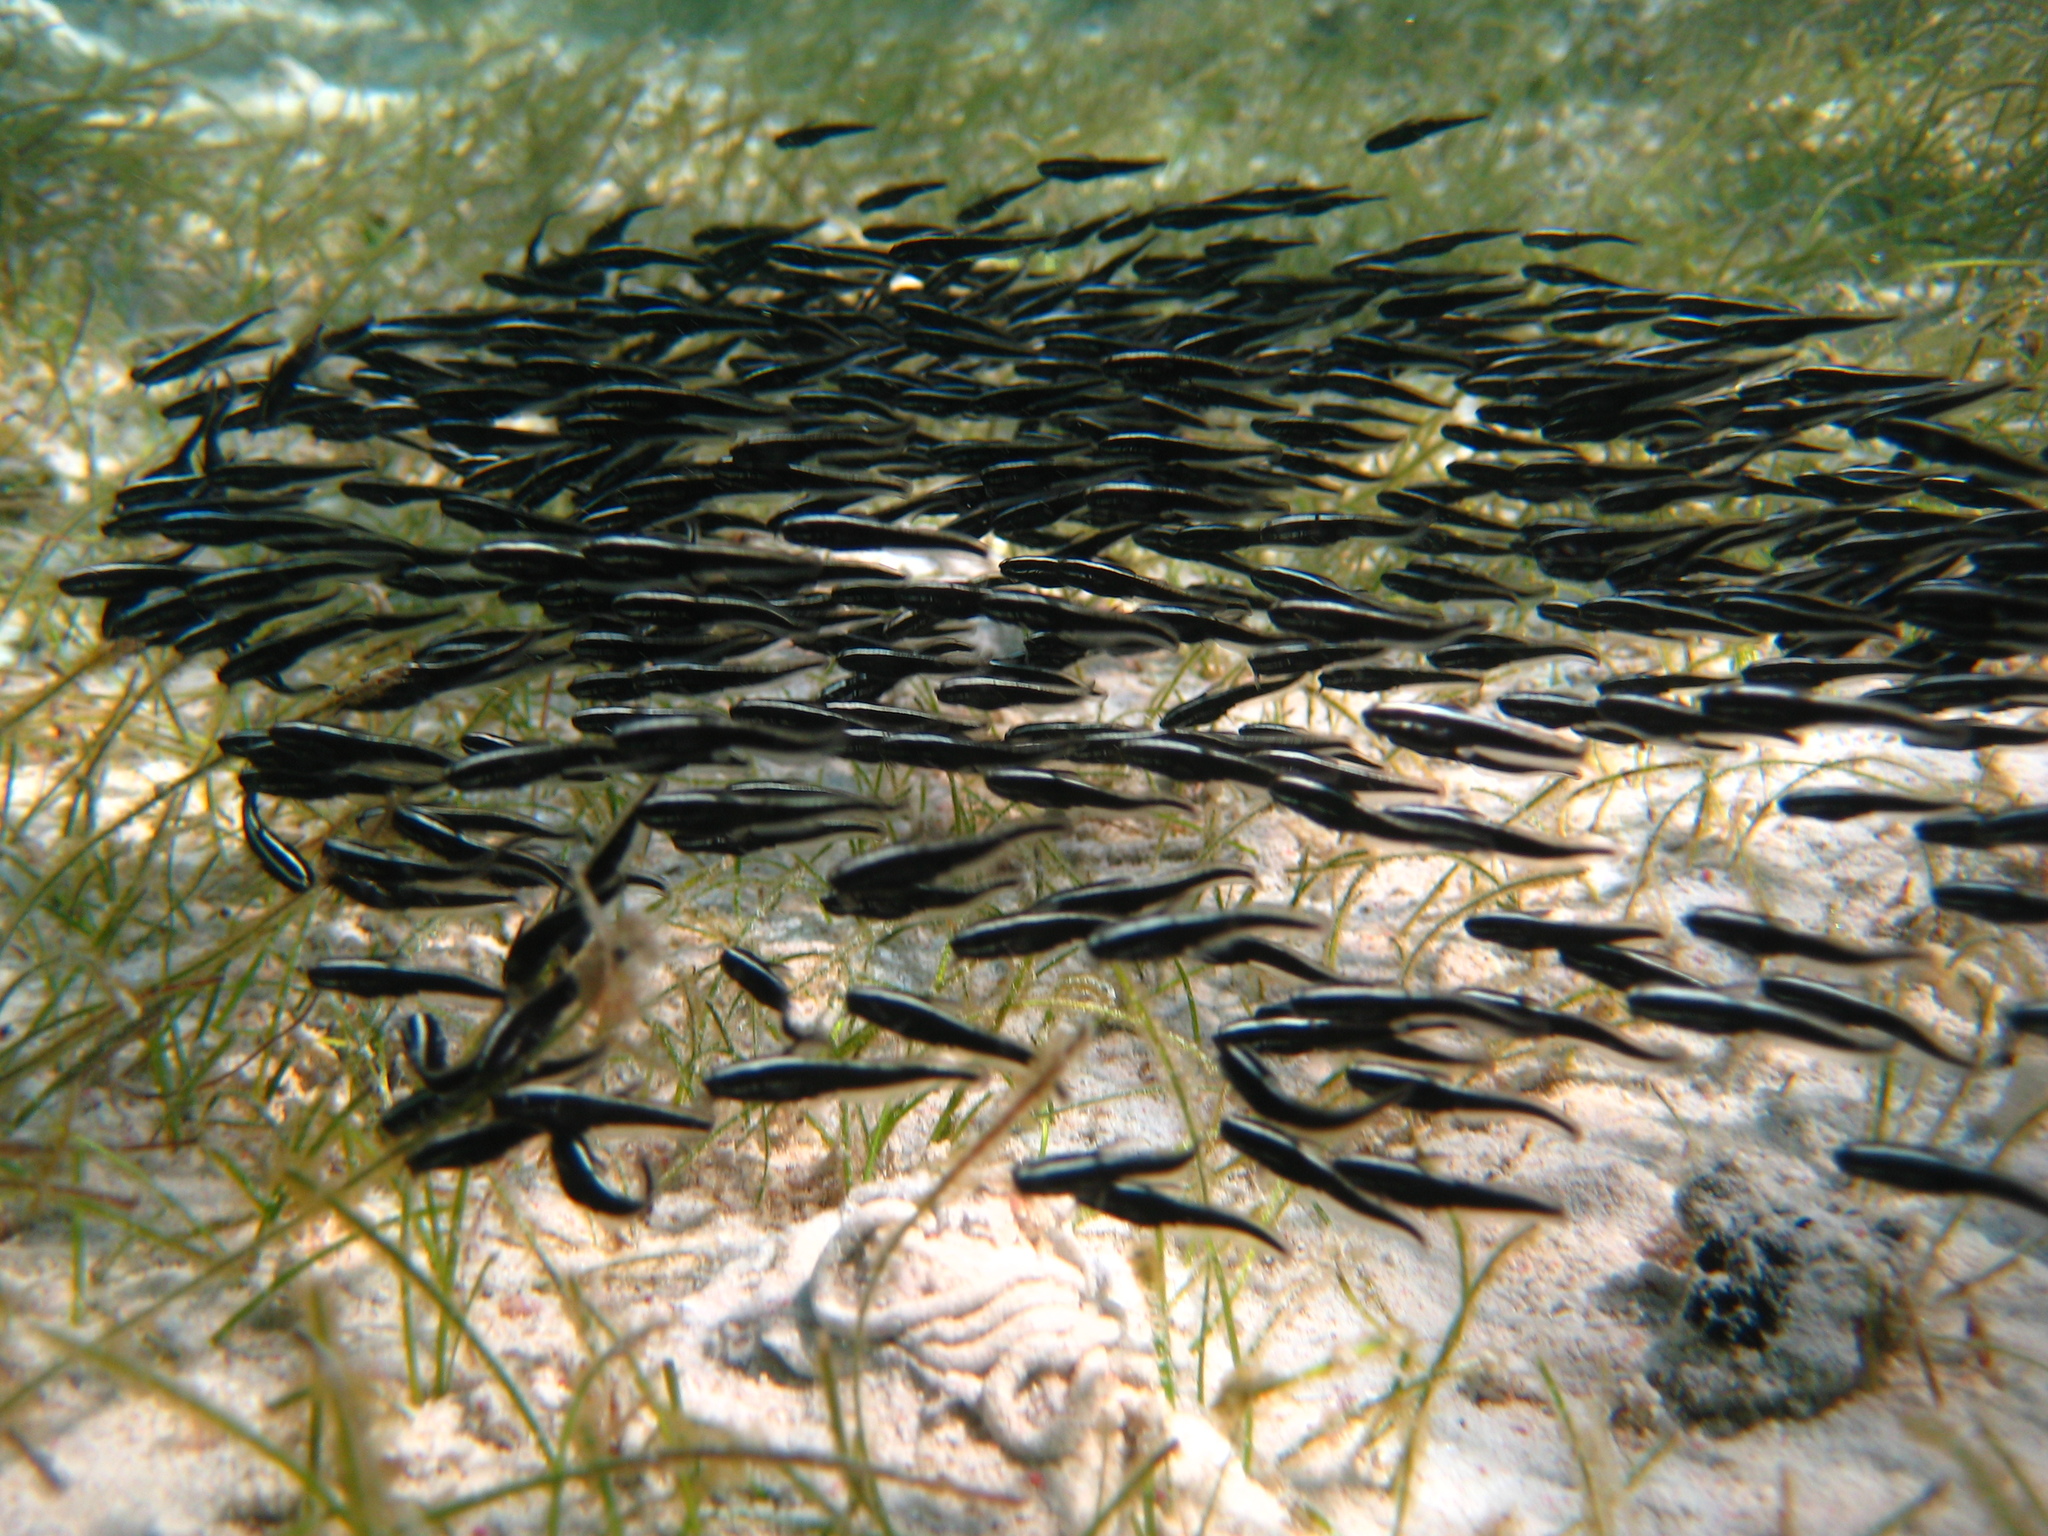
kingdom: Animalia
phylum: Chordata
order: Siluriformes
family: Plotosidae
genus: Plotosus
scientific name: Plotosus lineatus
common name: Striped eel catfish
